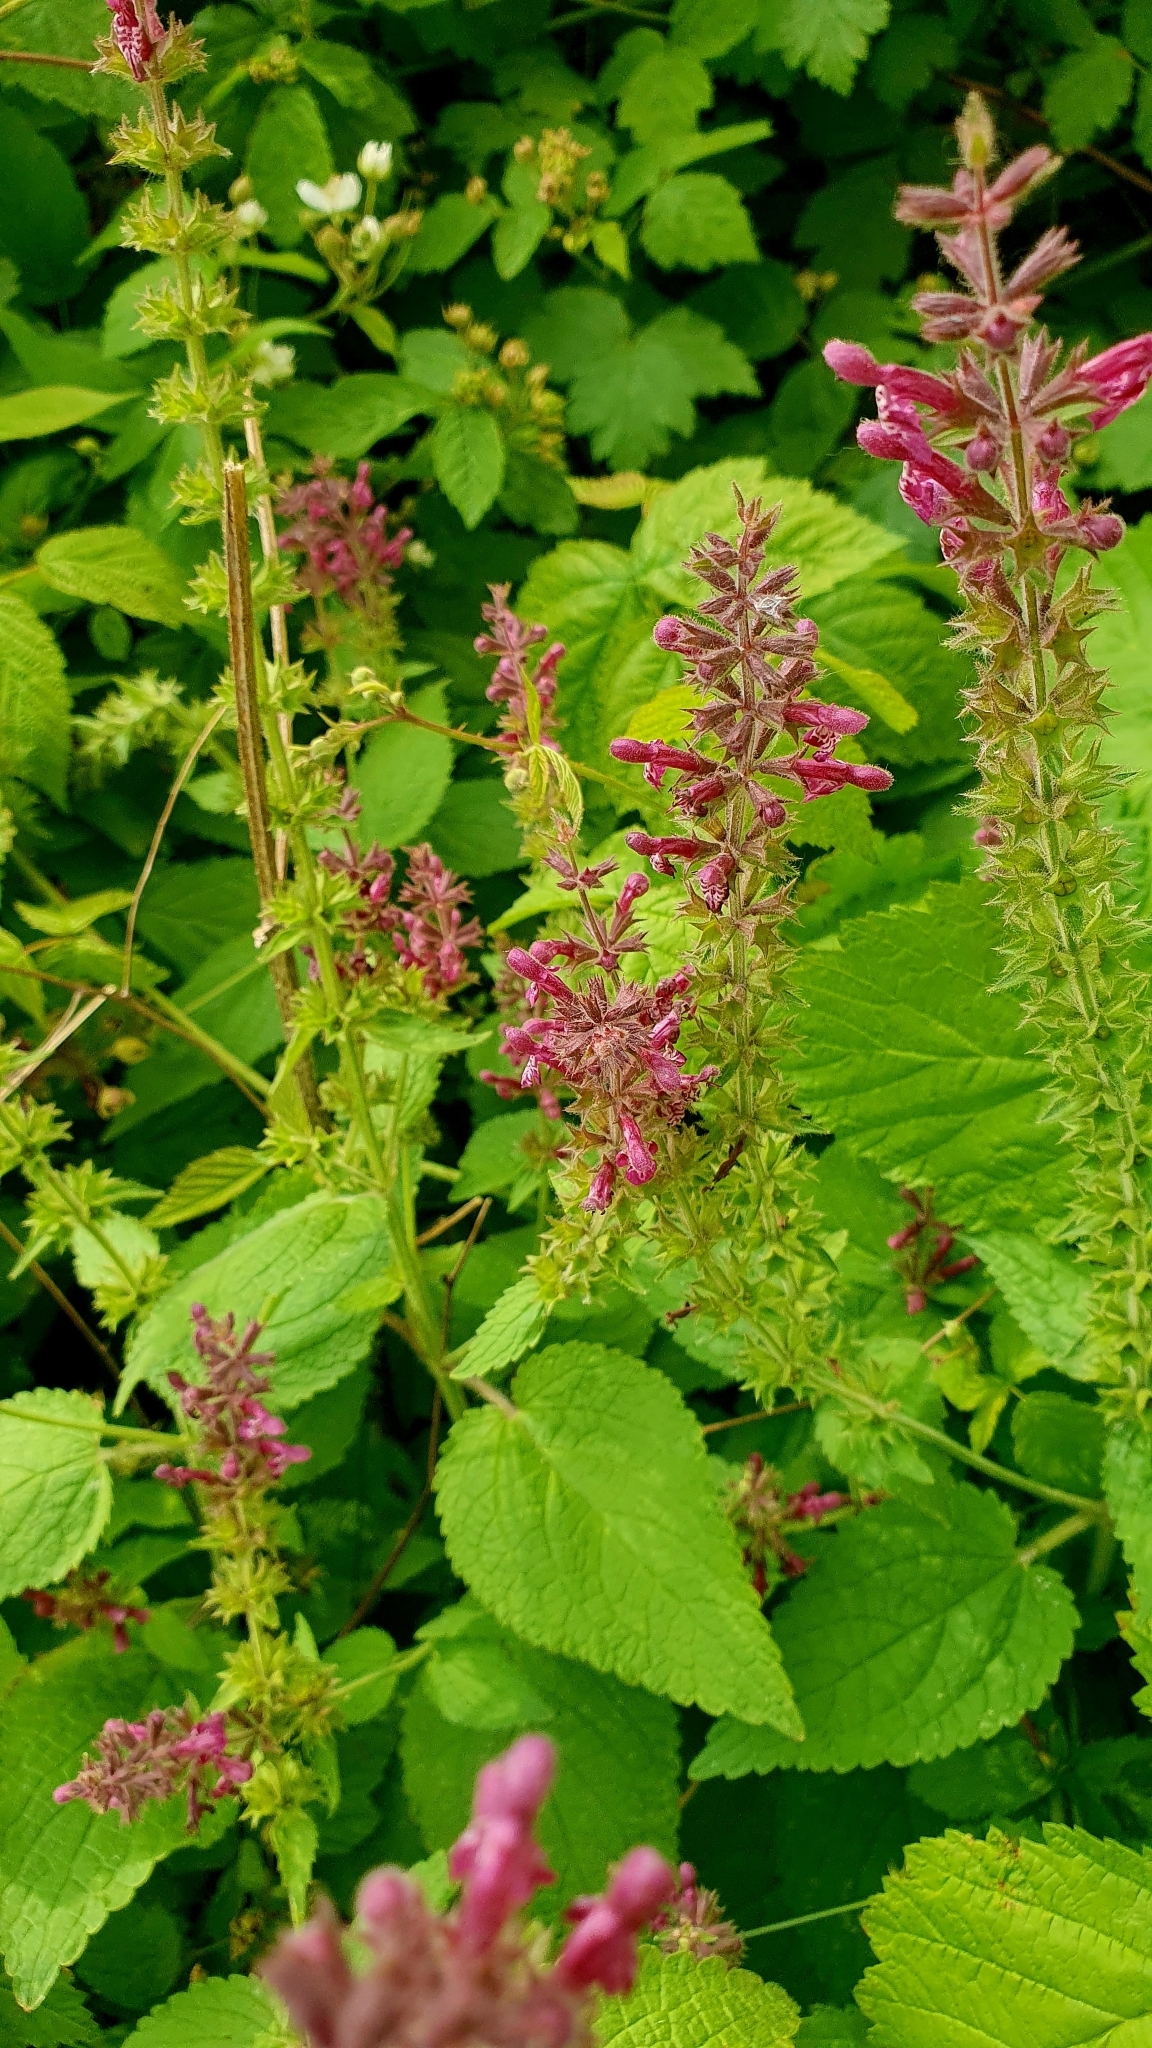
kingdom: Plantae
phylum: Tracheophyta
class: Magnoliopsida
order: Lamiales
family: Lamiaceae
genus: Stachys
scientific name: Stachys sylvatica
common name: Hedge woundwort
